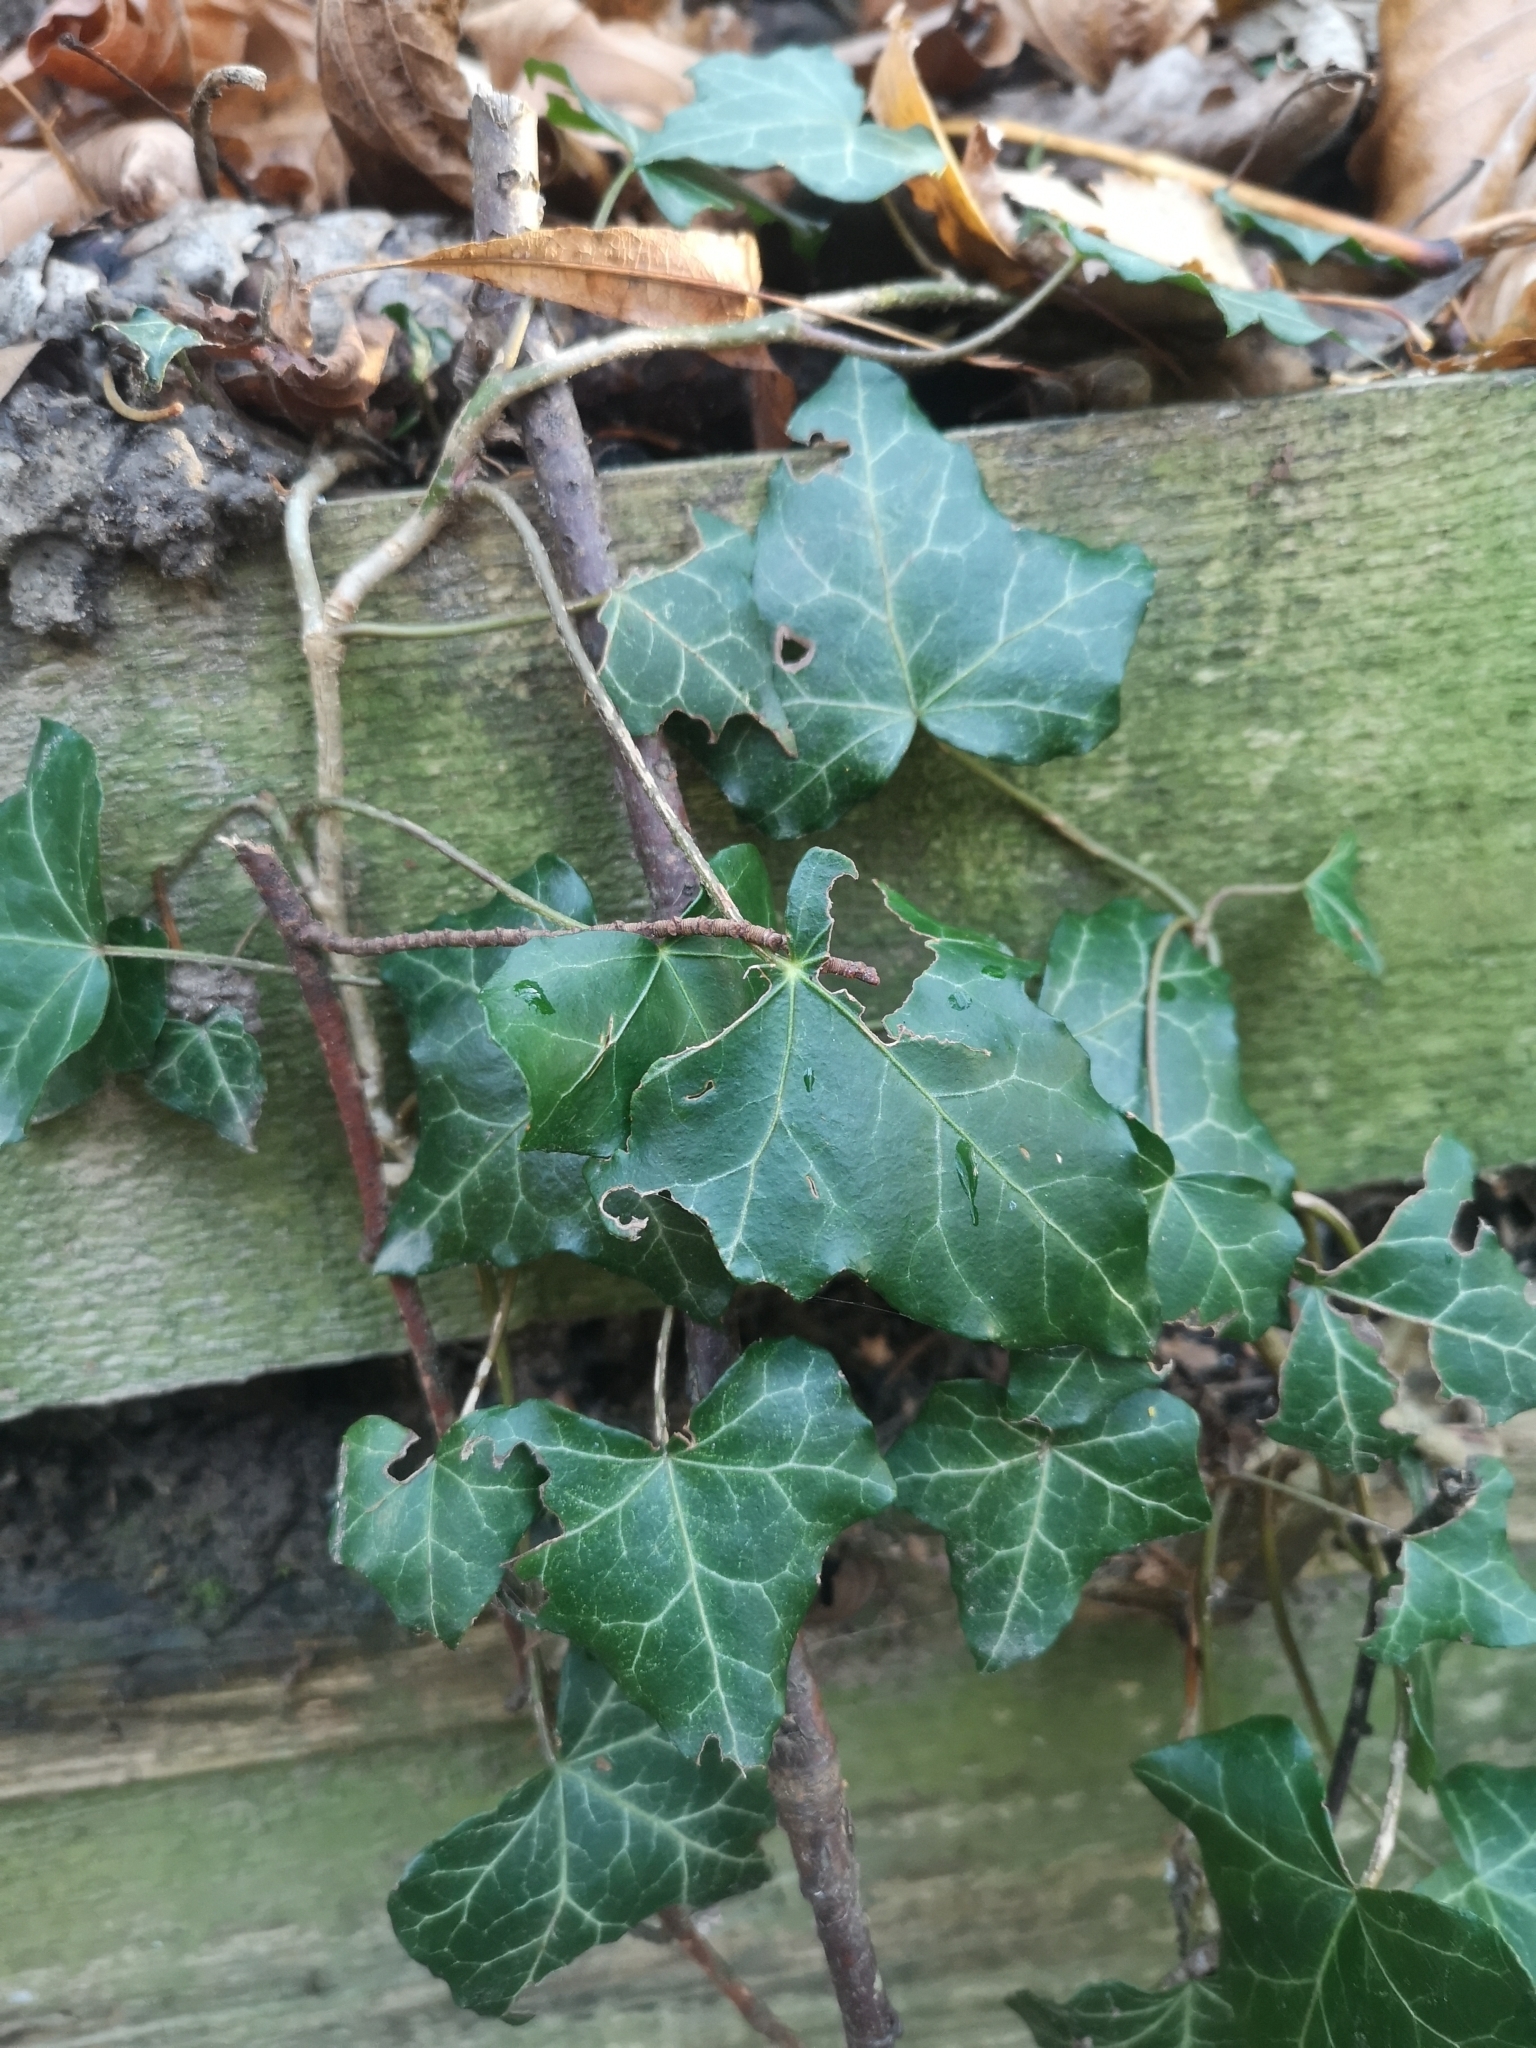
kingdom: Plantae
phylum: Tracheophyta
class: Magnoliopsida
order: Apiales
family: Araliaceae
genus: Hedera
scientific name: Hedera helix
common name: Ivy
